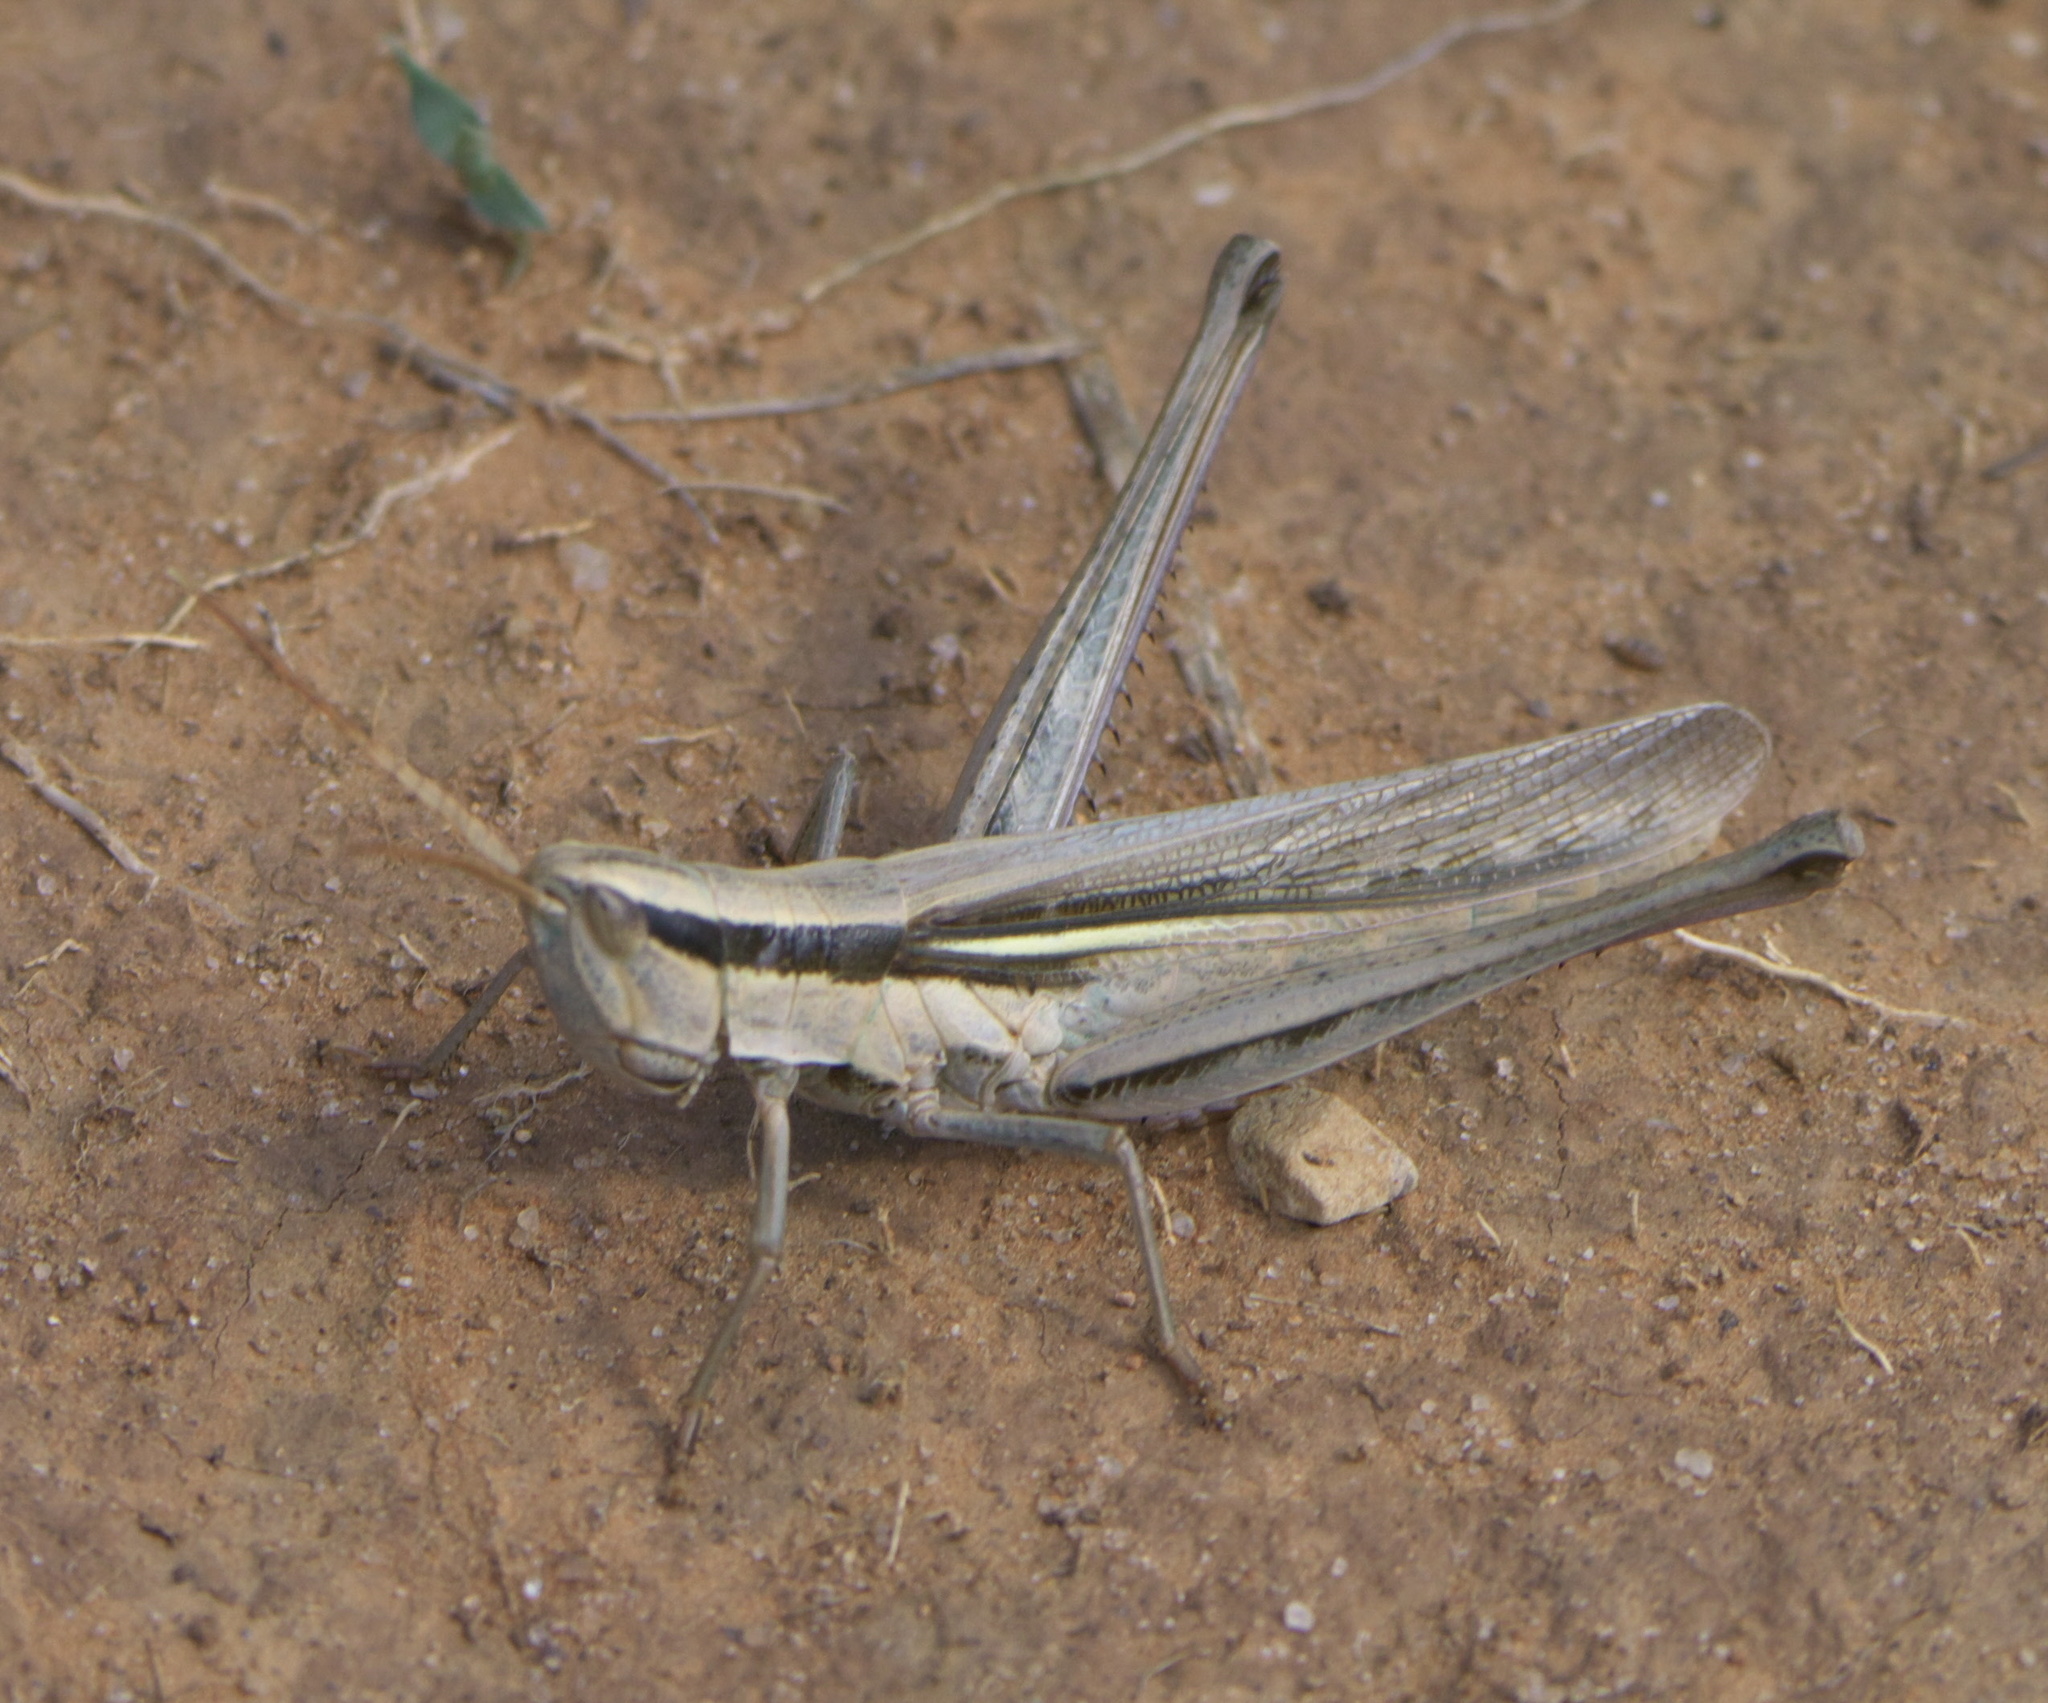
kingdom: Animalia
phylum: Arthropoda
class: Insecta
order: Orthoptera
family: Acrididae
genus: Mermiria
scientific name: Mermiria bivittata
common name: Two-striped mermiria grasshopper
